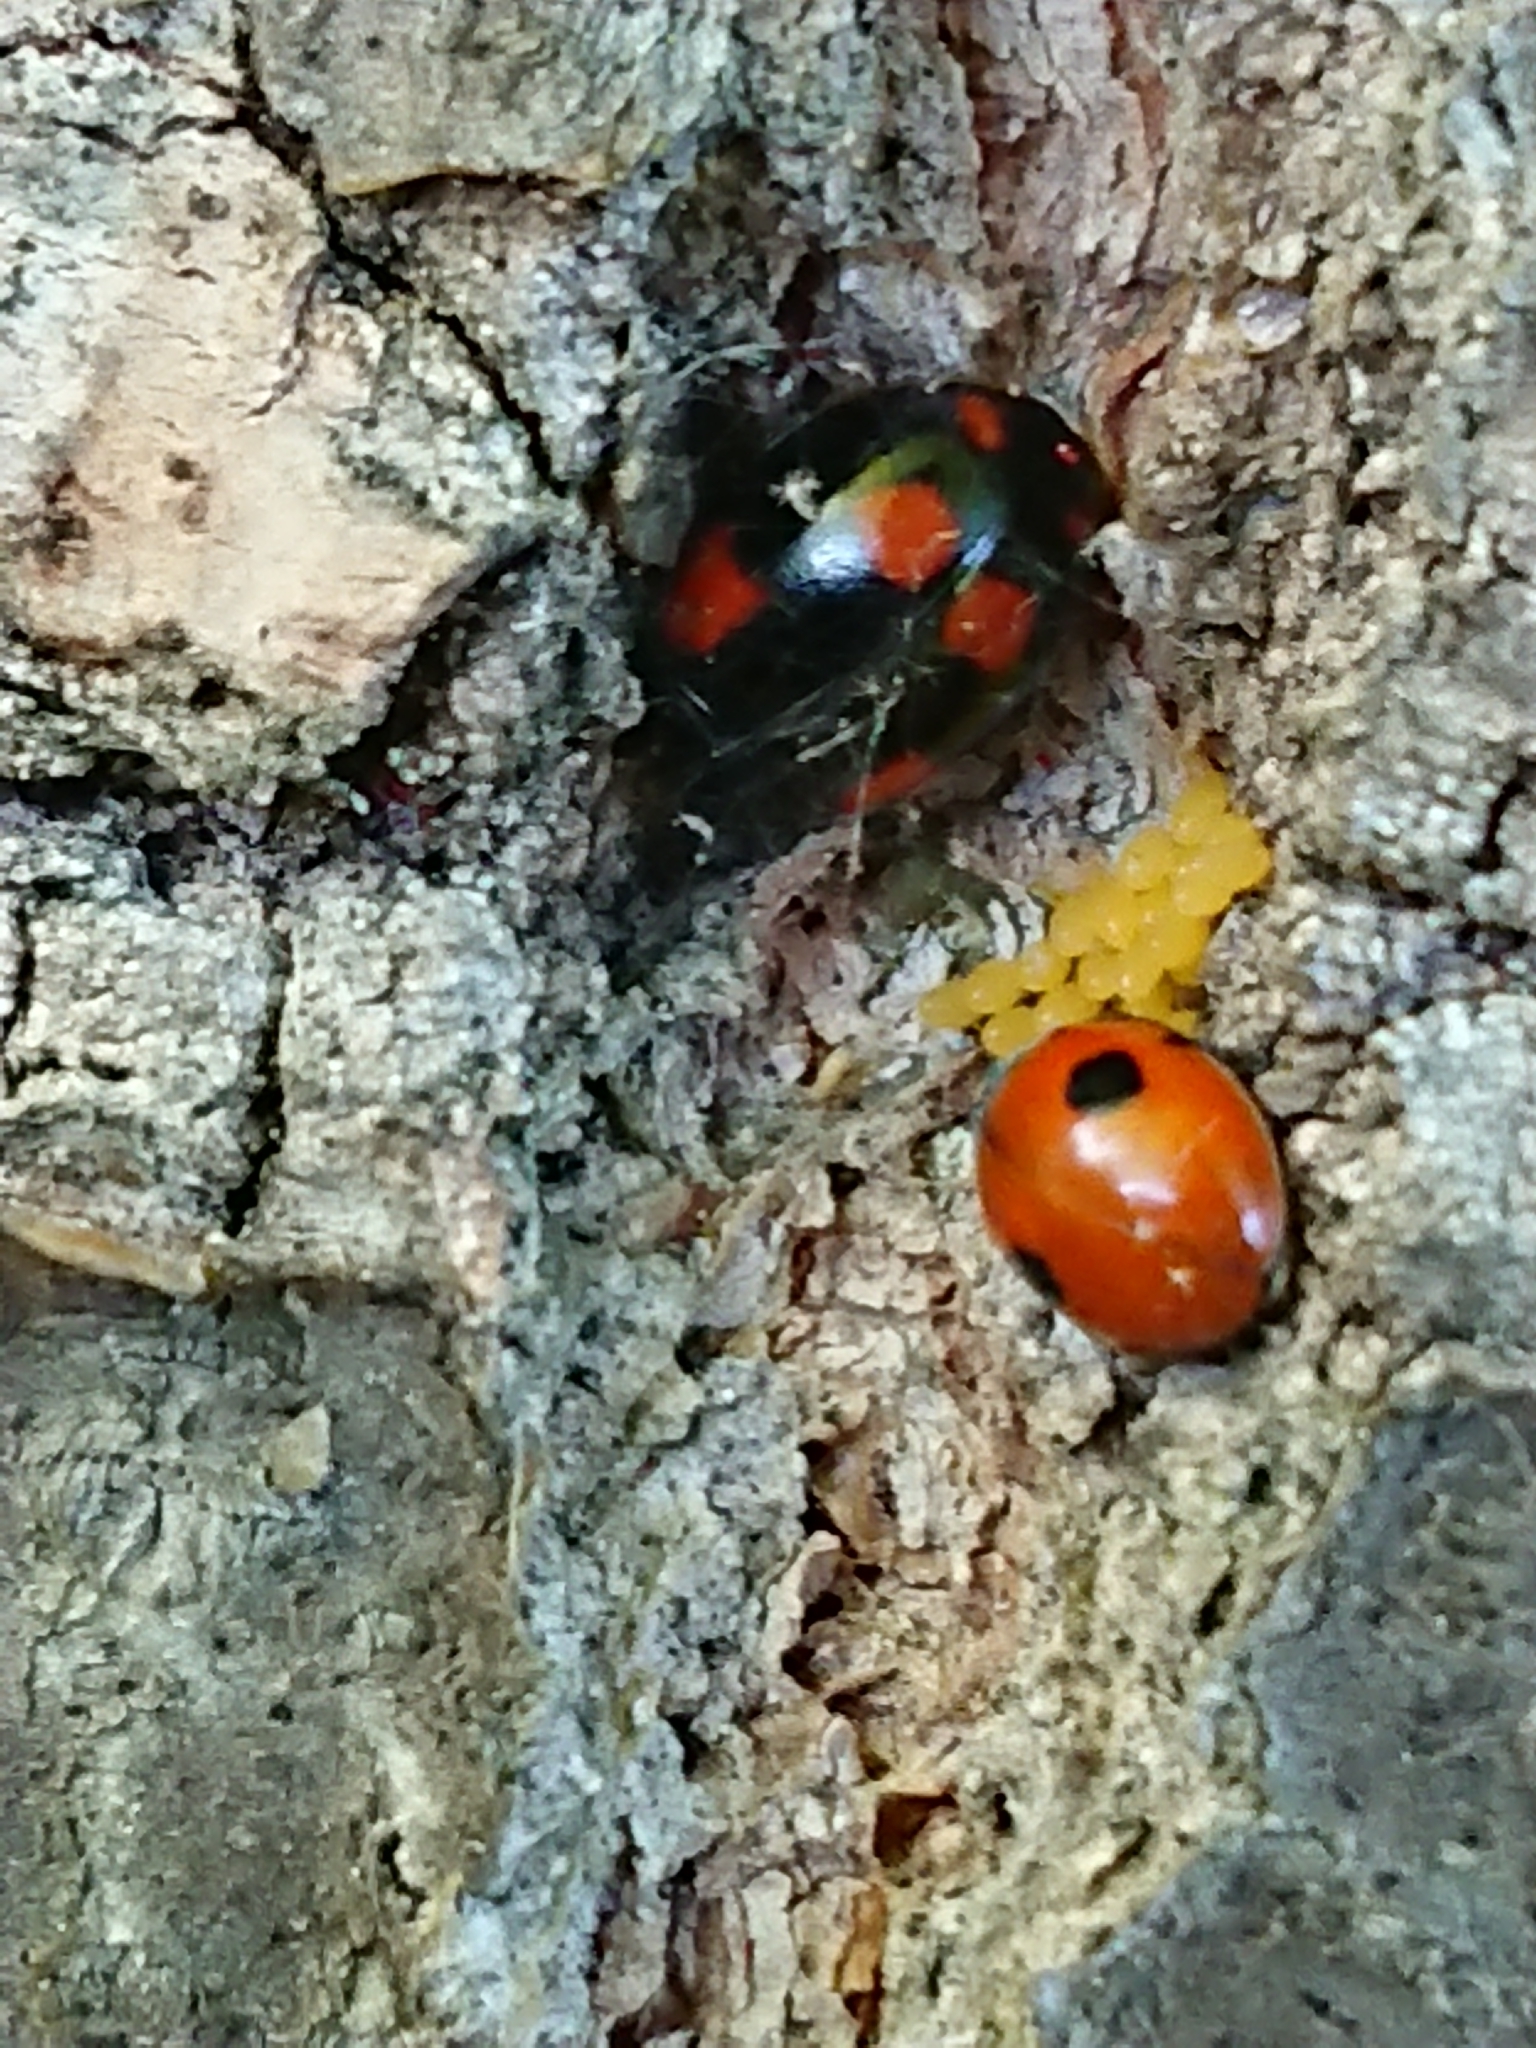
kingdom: Animalia
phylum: Arthropoda
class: Insecta
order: Coleoptera
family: Coccinellidae
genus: Adalia
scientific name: Adalia bipunctata
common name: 2-spot ladybird
